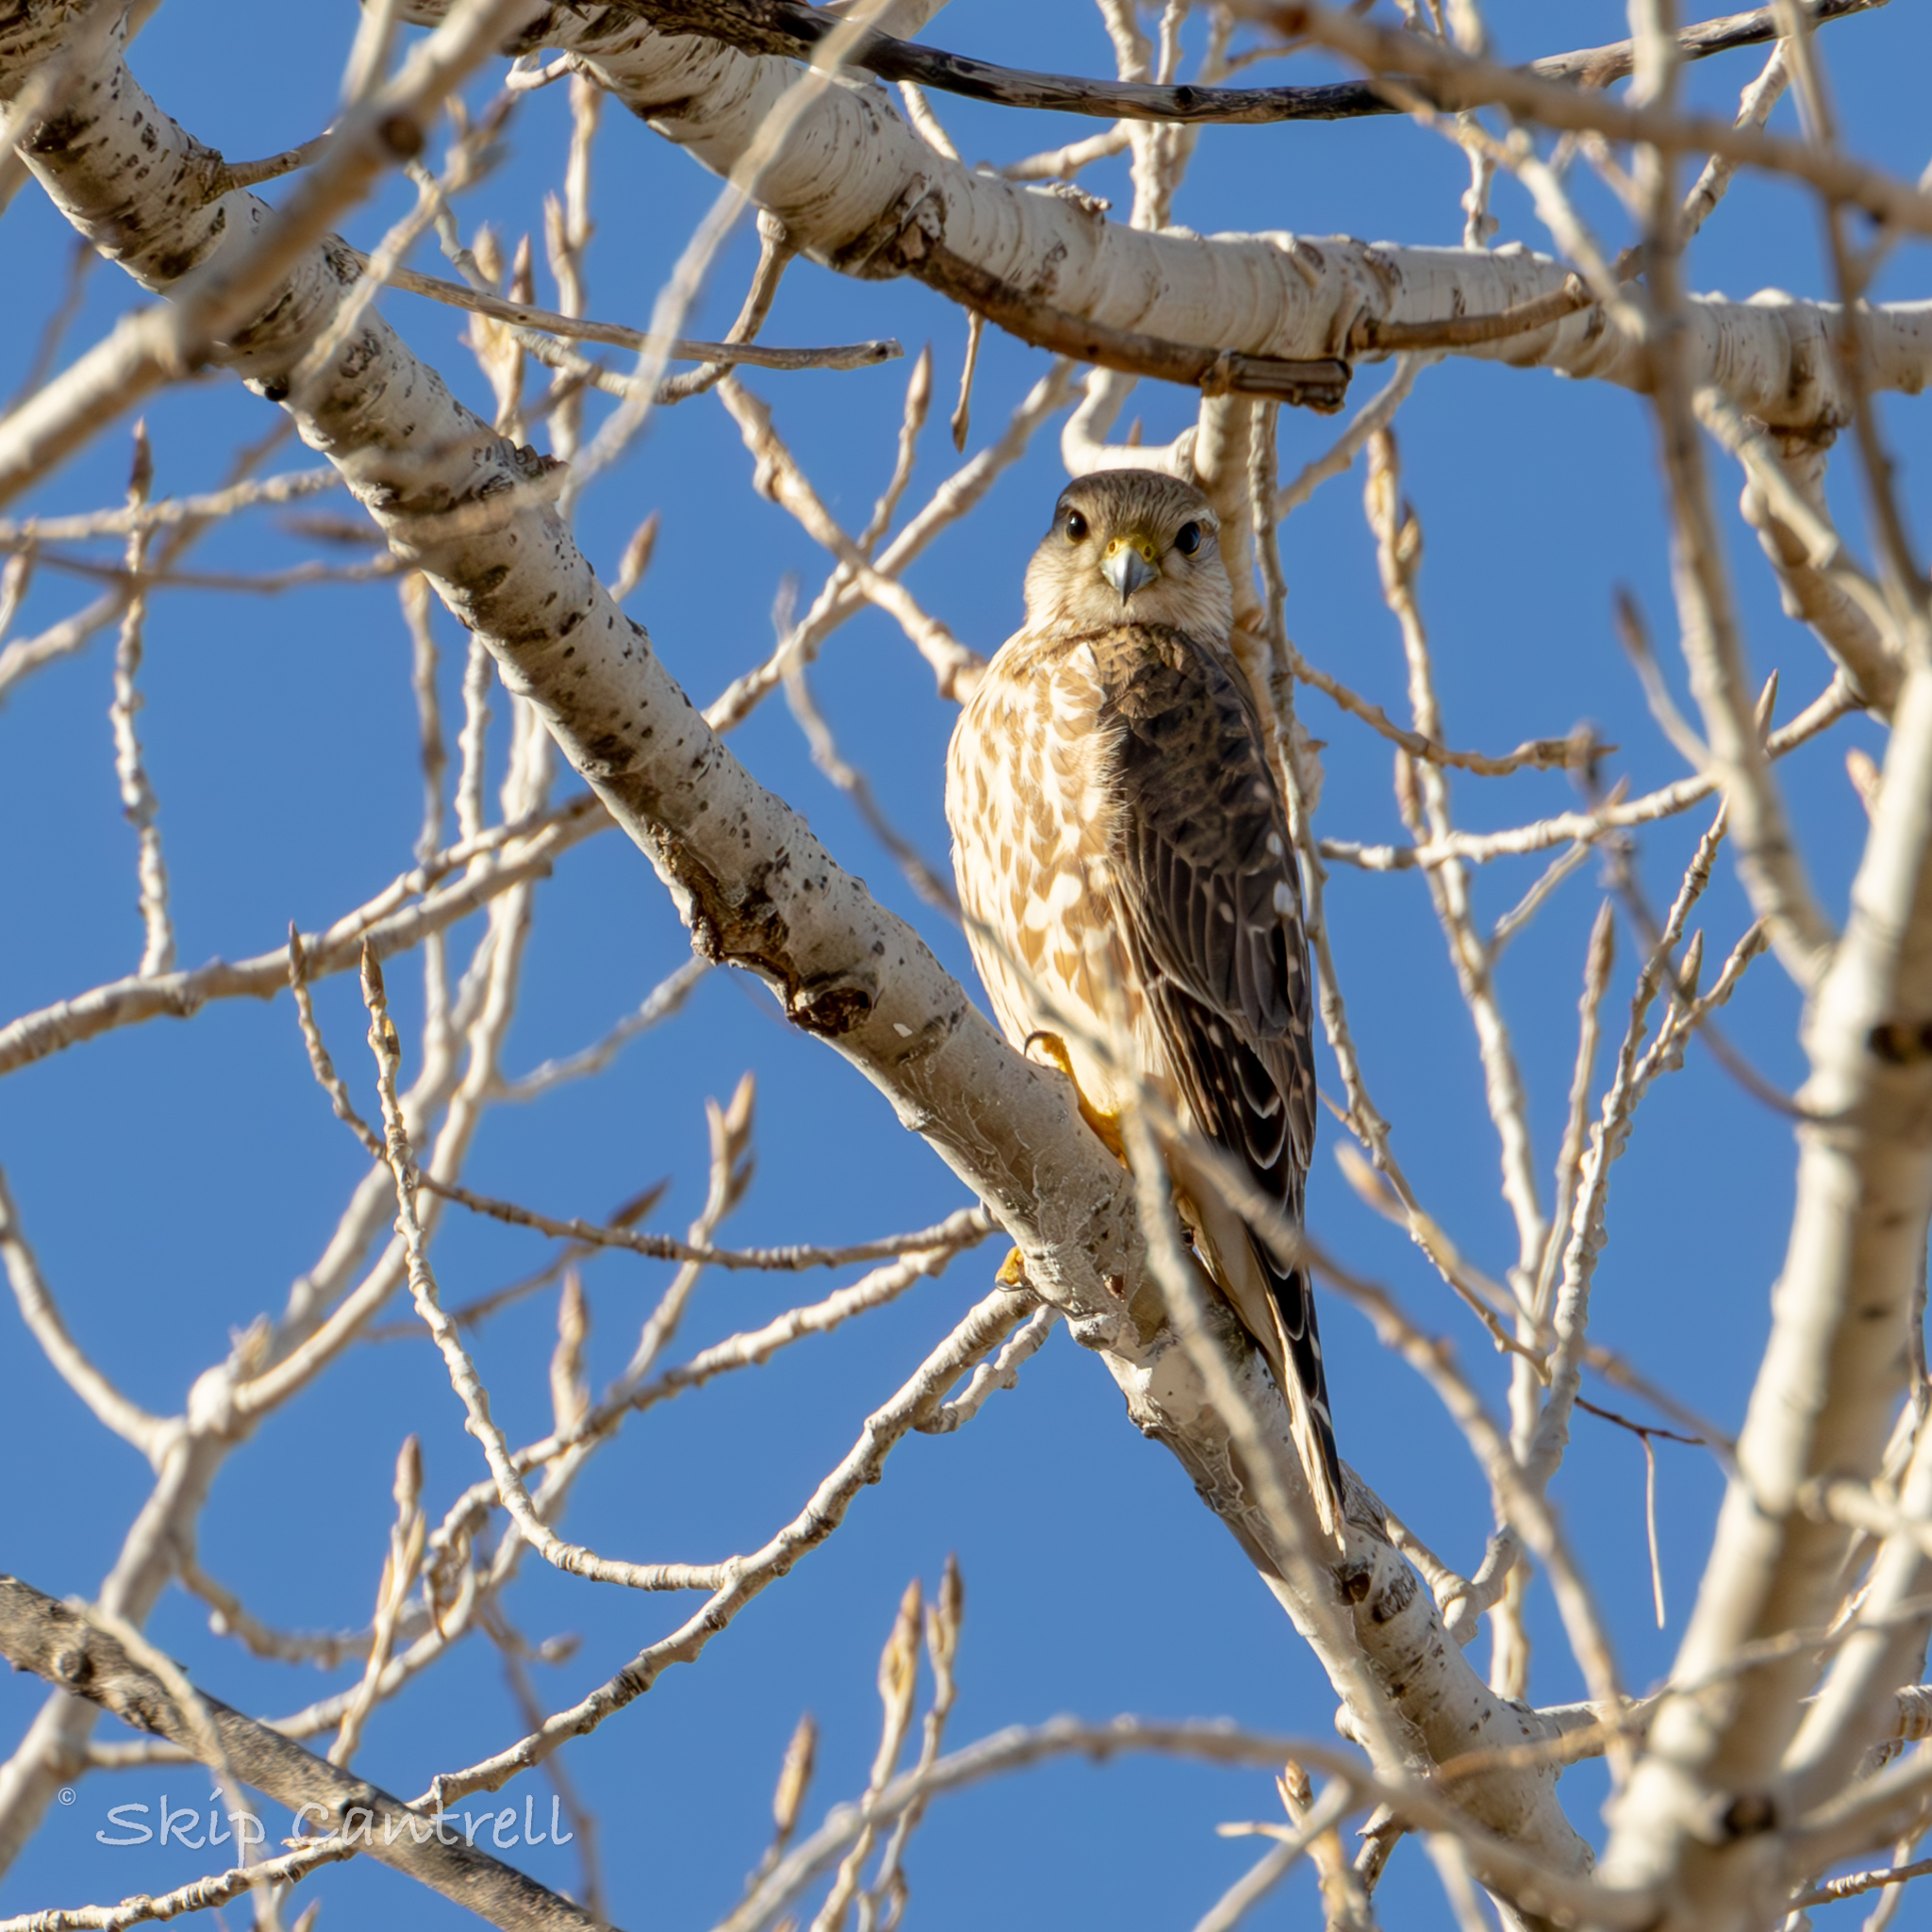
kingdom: Animalia
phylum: Chordata
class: Aves
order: Falconiformes
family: Falconidae
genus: Falco
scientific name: Falco columbarius
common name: Merlin
